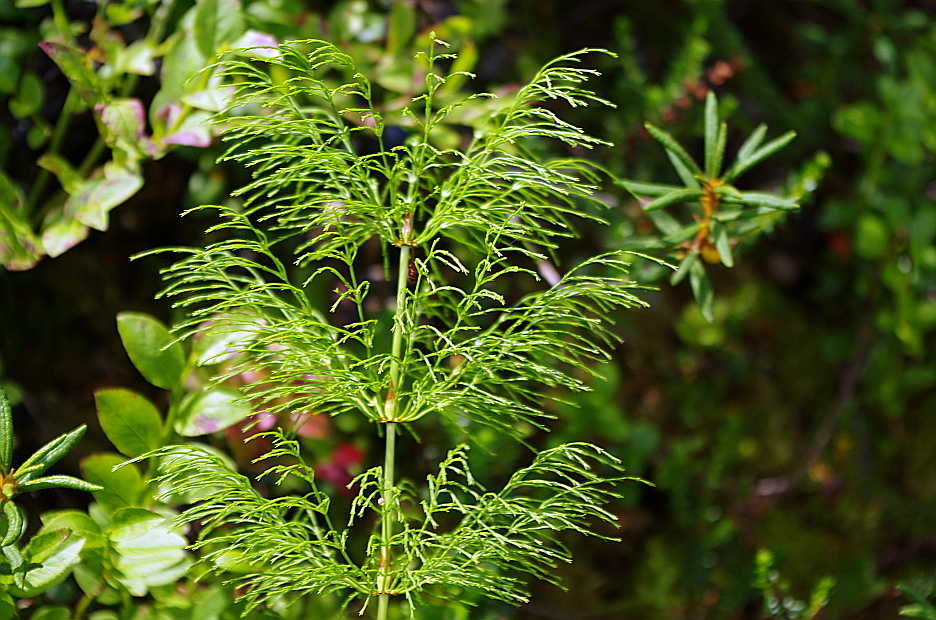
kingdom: Plantae
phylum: Tracheophyta
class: Polypodiopsida
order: Equisetales
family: Equisetaceae
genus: Equisetum
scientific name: Equisetum sylvaticum
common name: Wood horsetail
